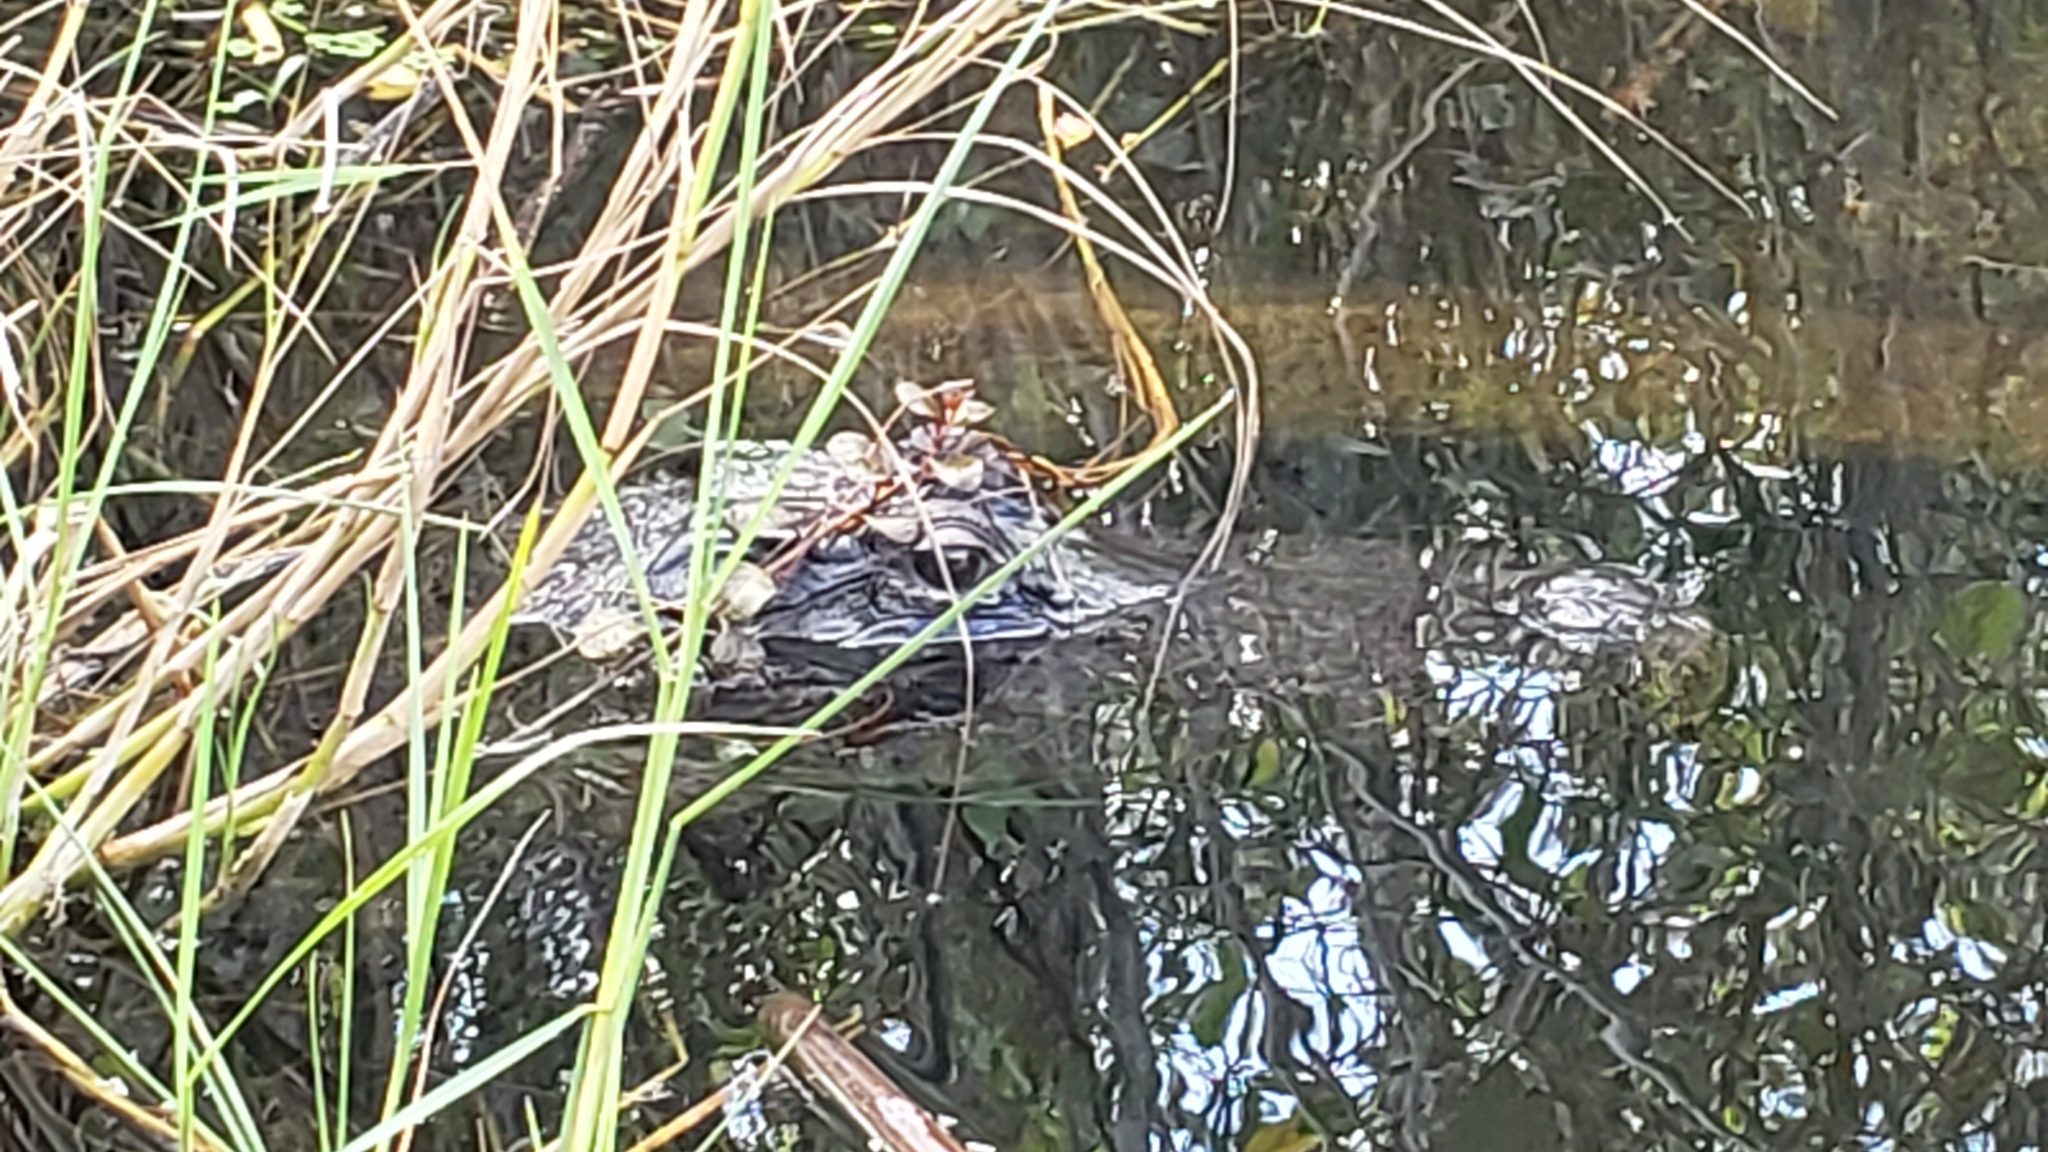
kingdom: Animalia
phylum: Chordata
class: Crocodylia
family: Alligatoridae
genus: Alligator
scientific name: Alligator mississippiensis
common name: American alligator
